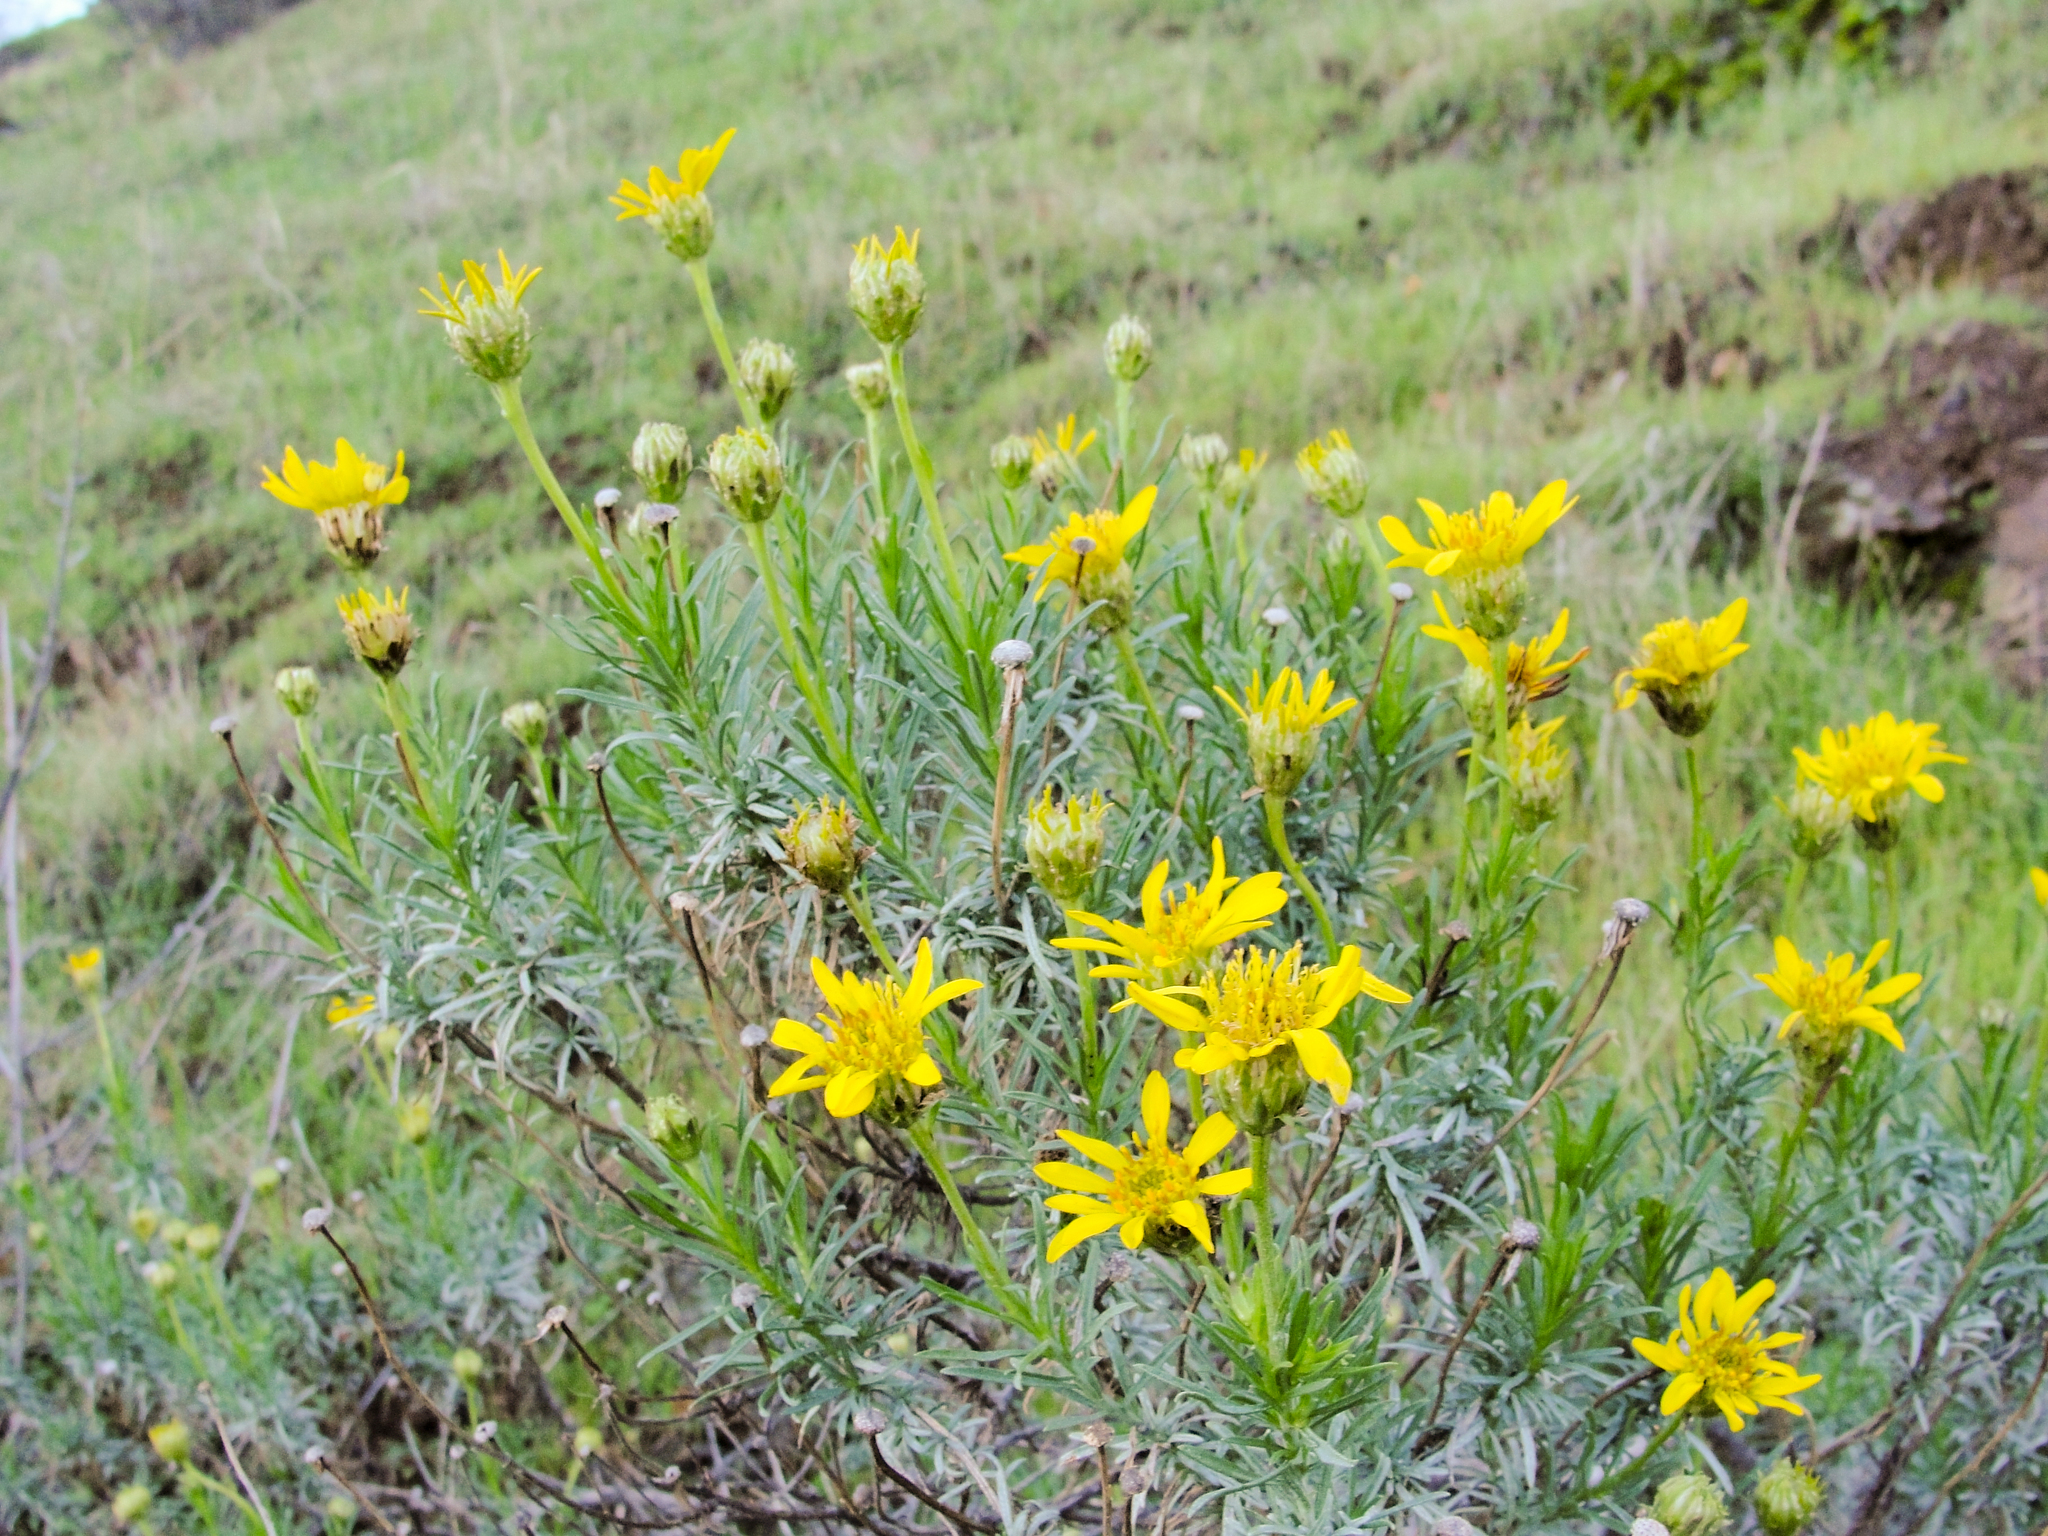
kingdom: Plantae
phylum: Tracheophyta
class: Magnoliopsida
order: Asterales
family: Asteraceae
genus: Ericameria
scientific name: Ericameria linearifolia
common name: Interior goldenbush
